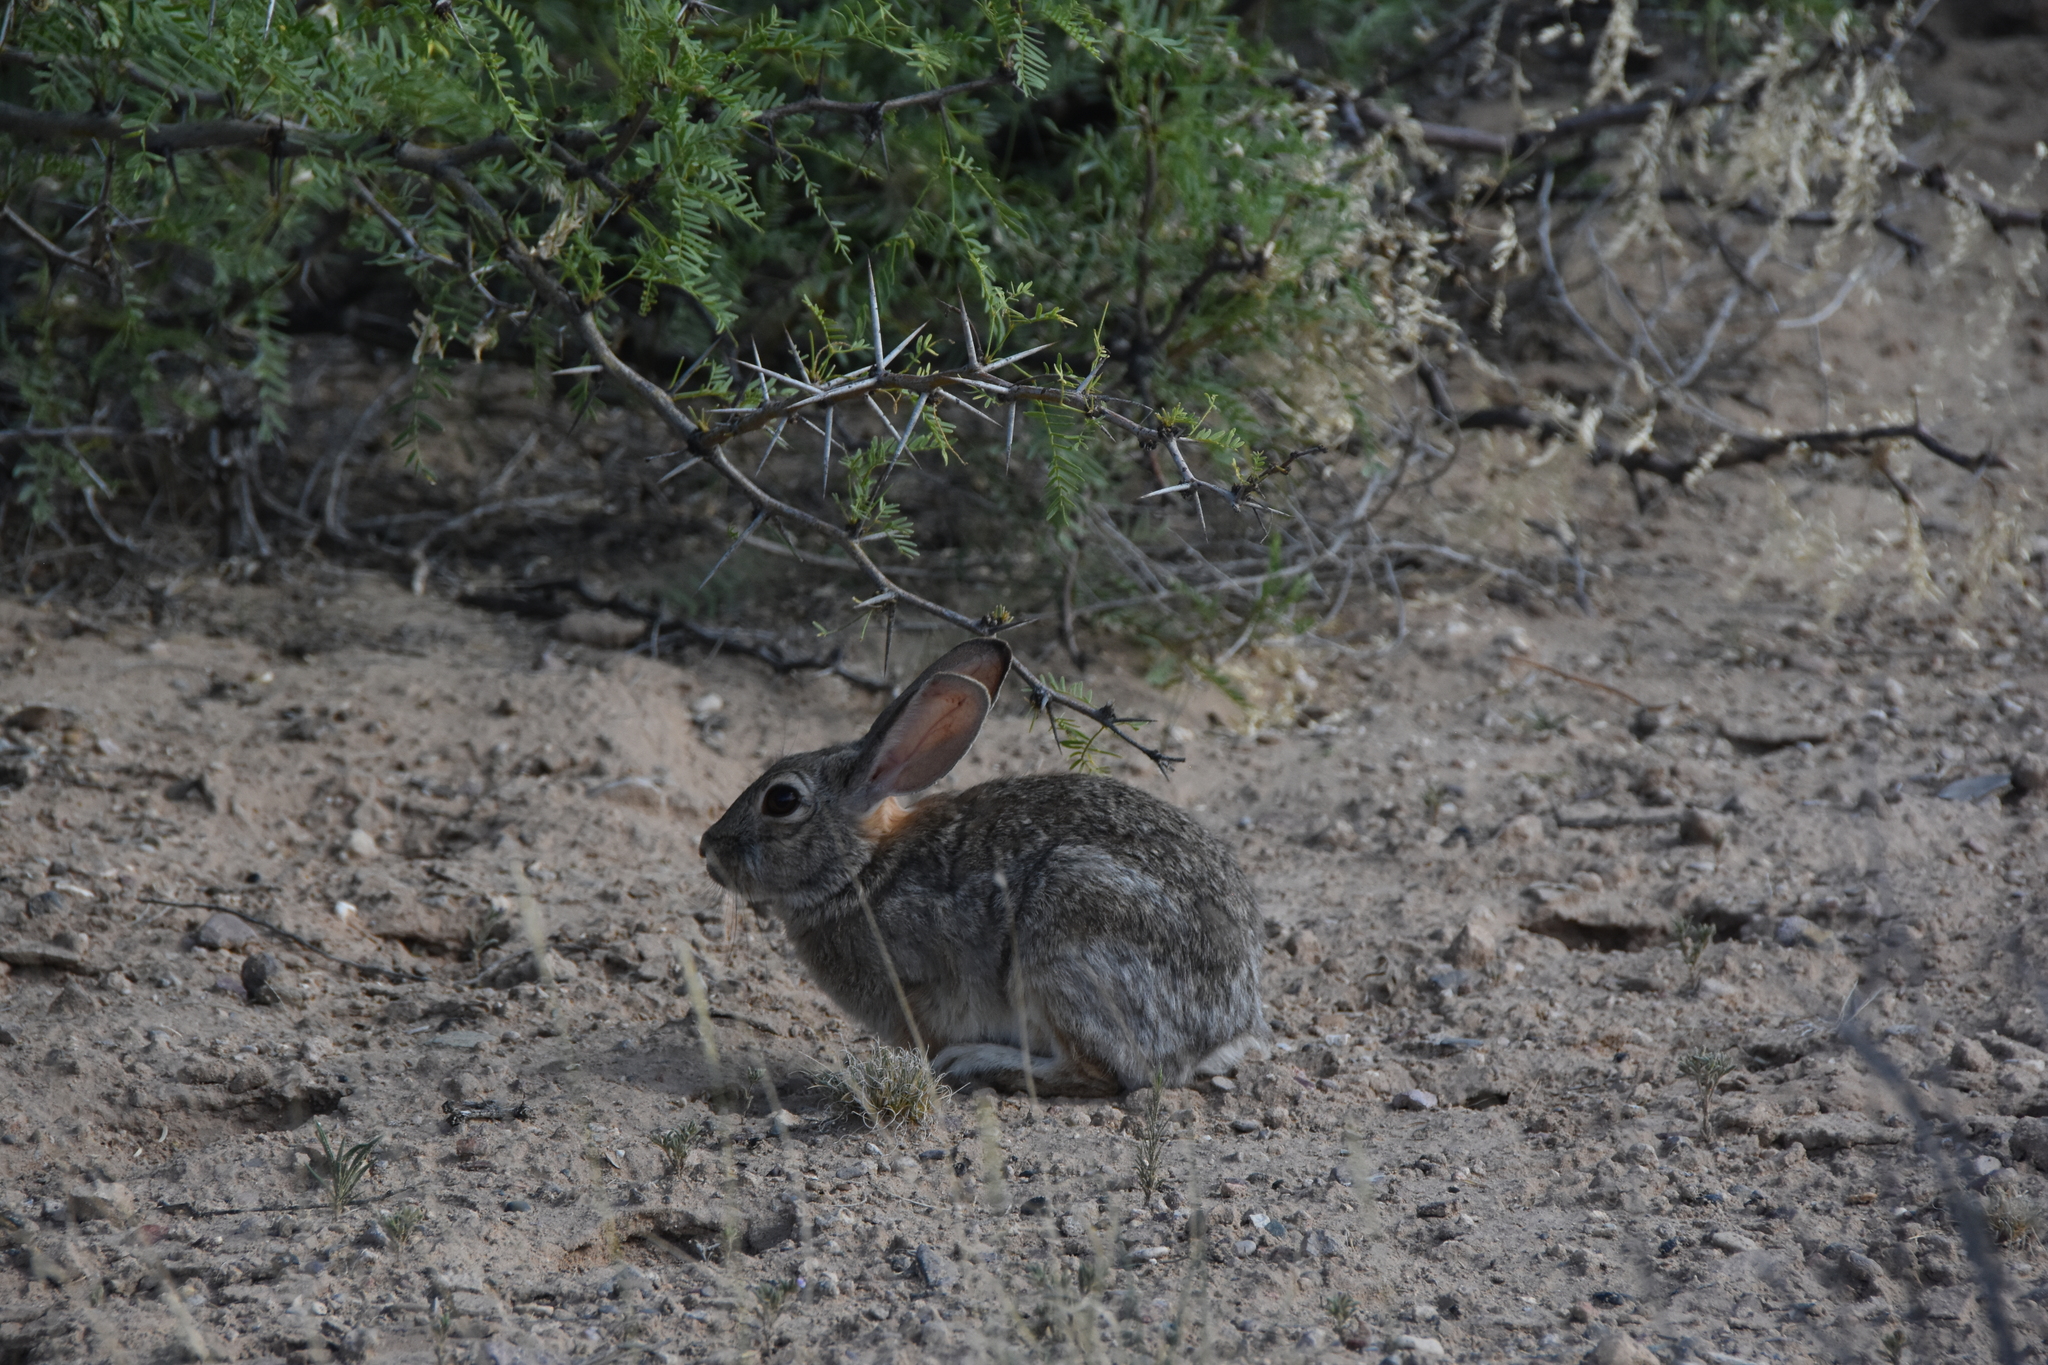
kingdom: Animalia
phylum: Chordata
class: Mammalia
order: Lagomorpha
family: Leporidae
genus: Sylvilagus
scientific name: Sylvilagus audubonii
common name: Desert cottontail
